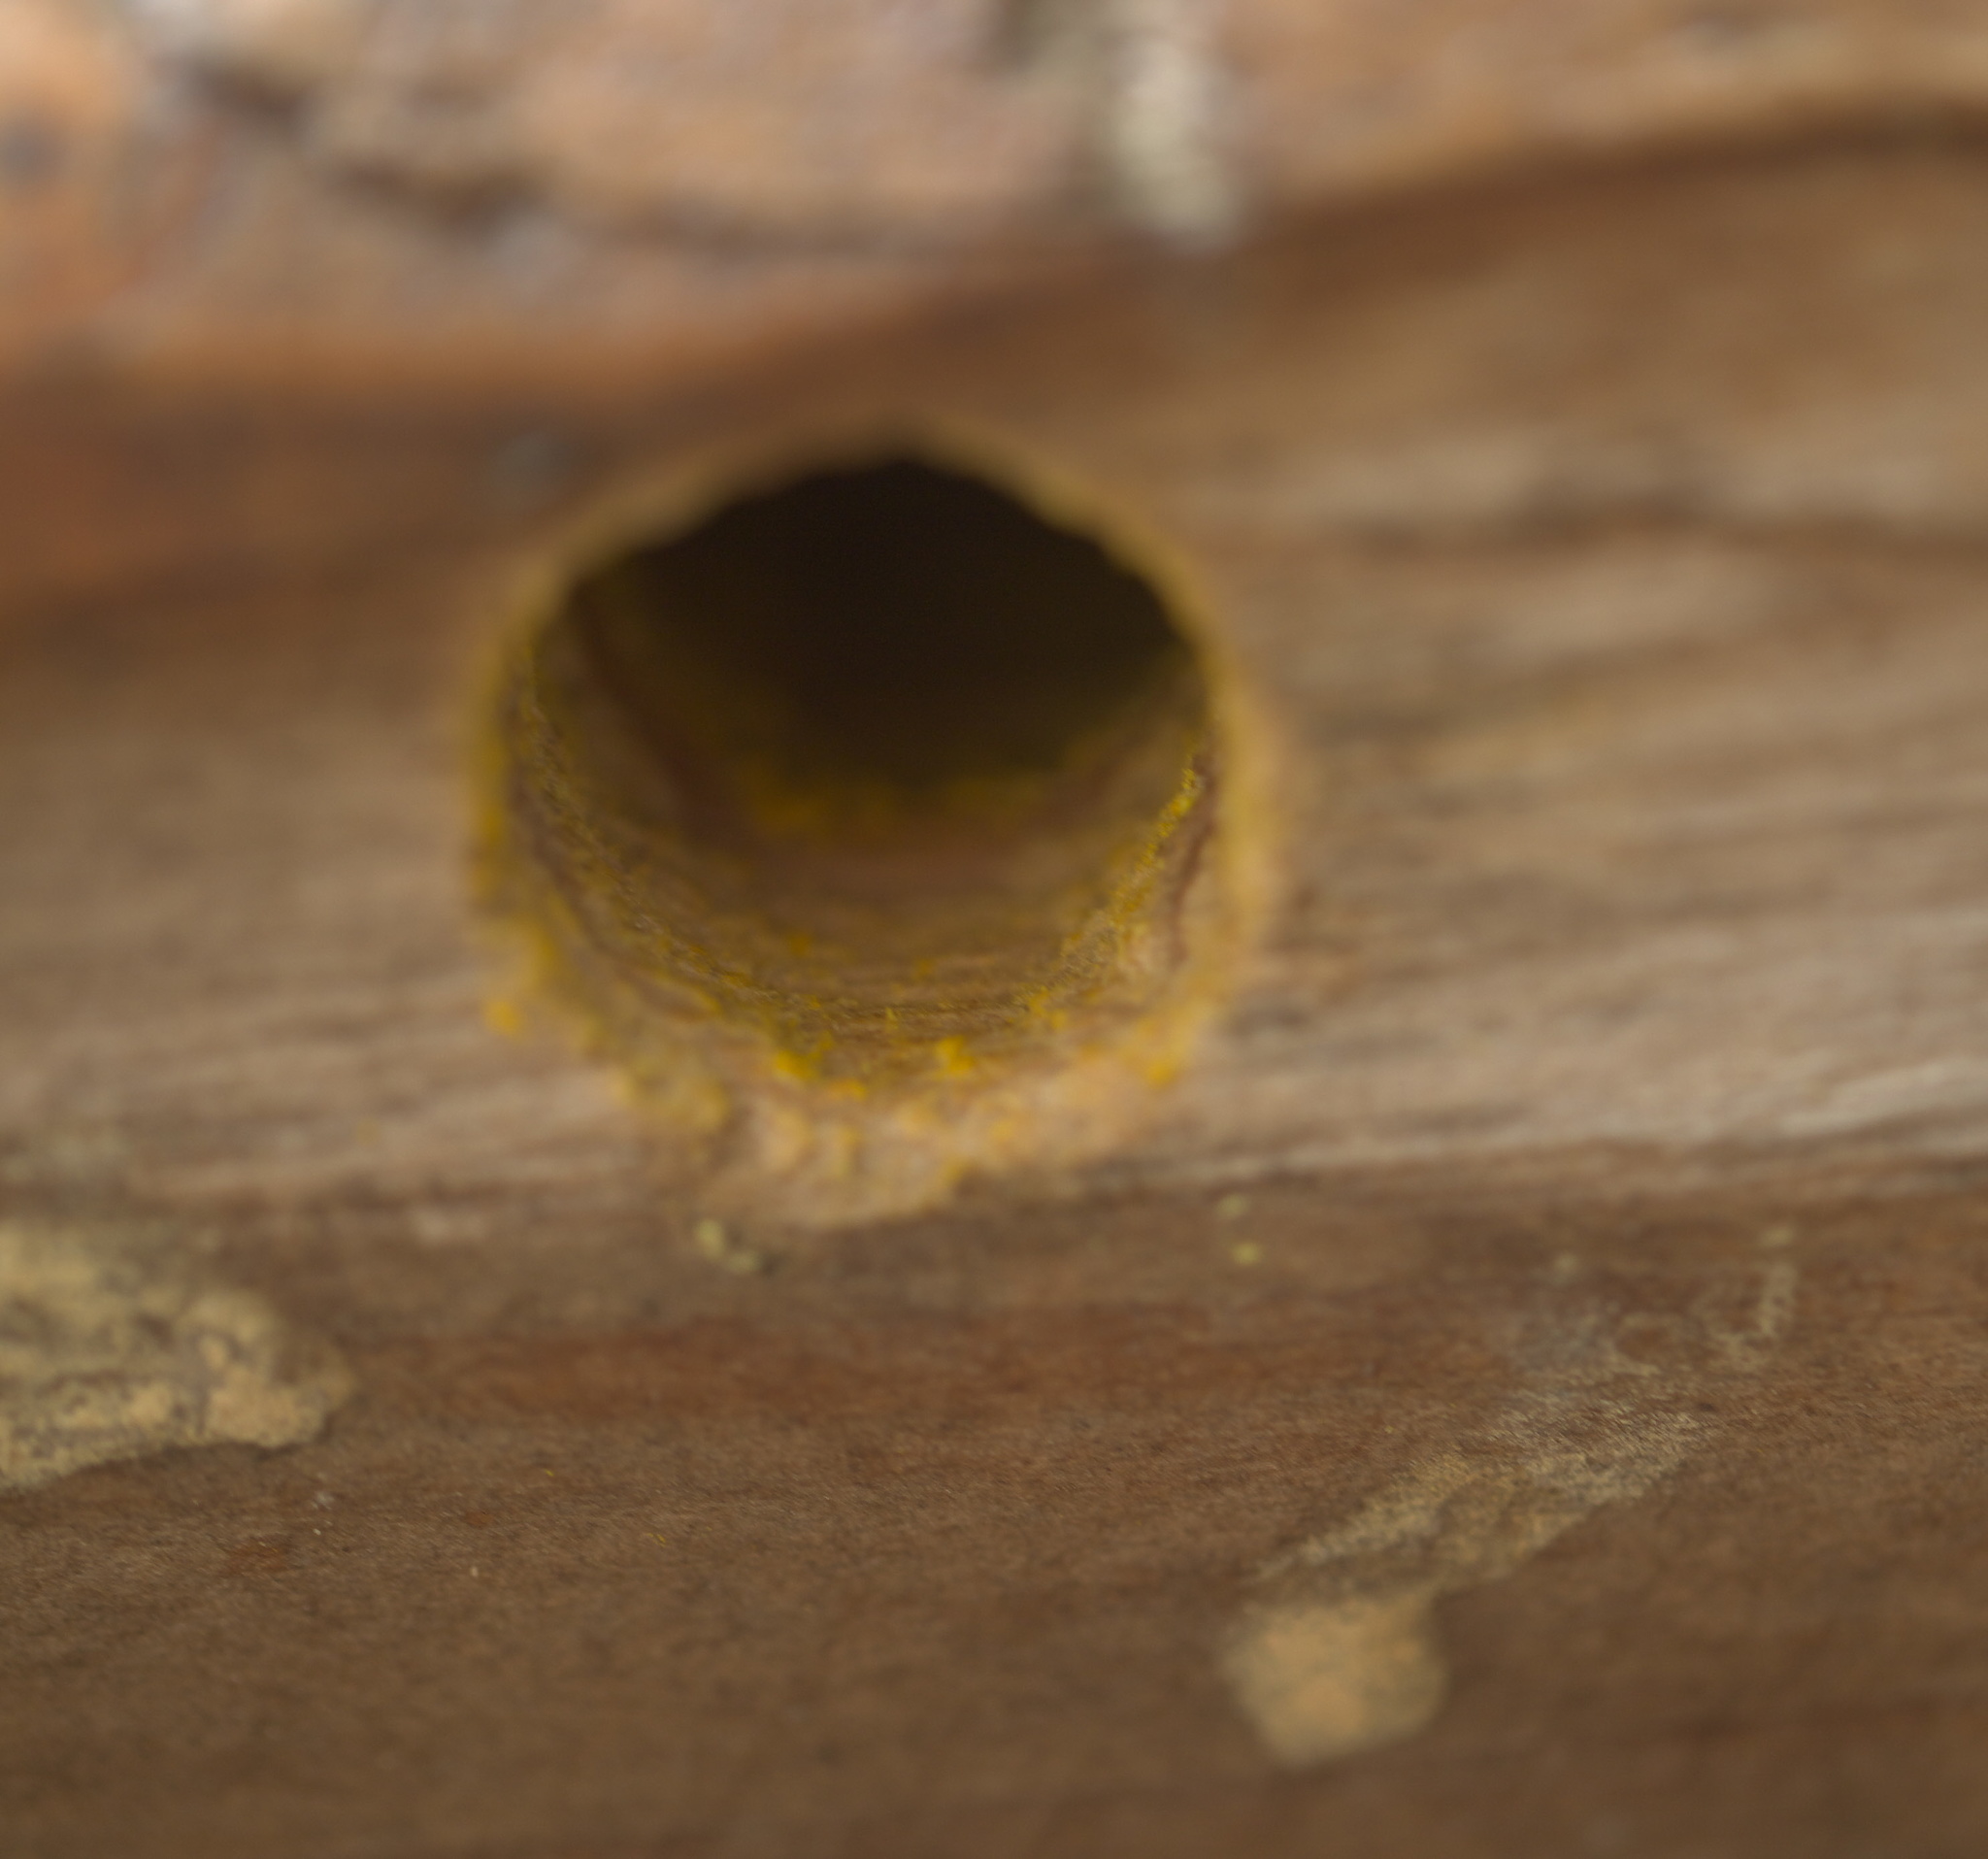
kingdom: Animalia
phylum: Arthropoda
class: Insecta
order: Hymenoptera
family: Apidae
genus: Xylocopa
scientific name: Xylocopa virginica
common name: Carpenter bee
